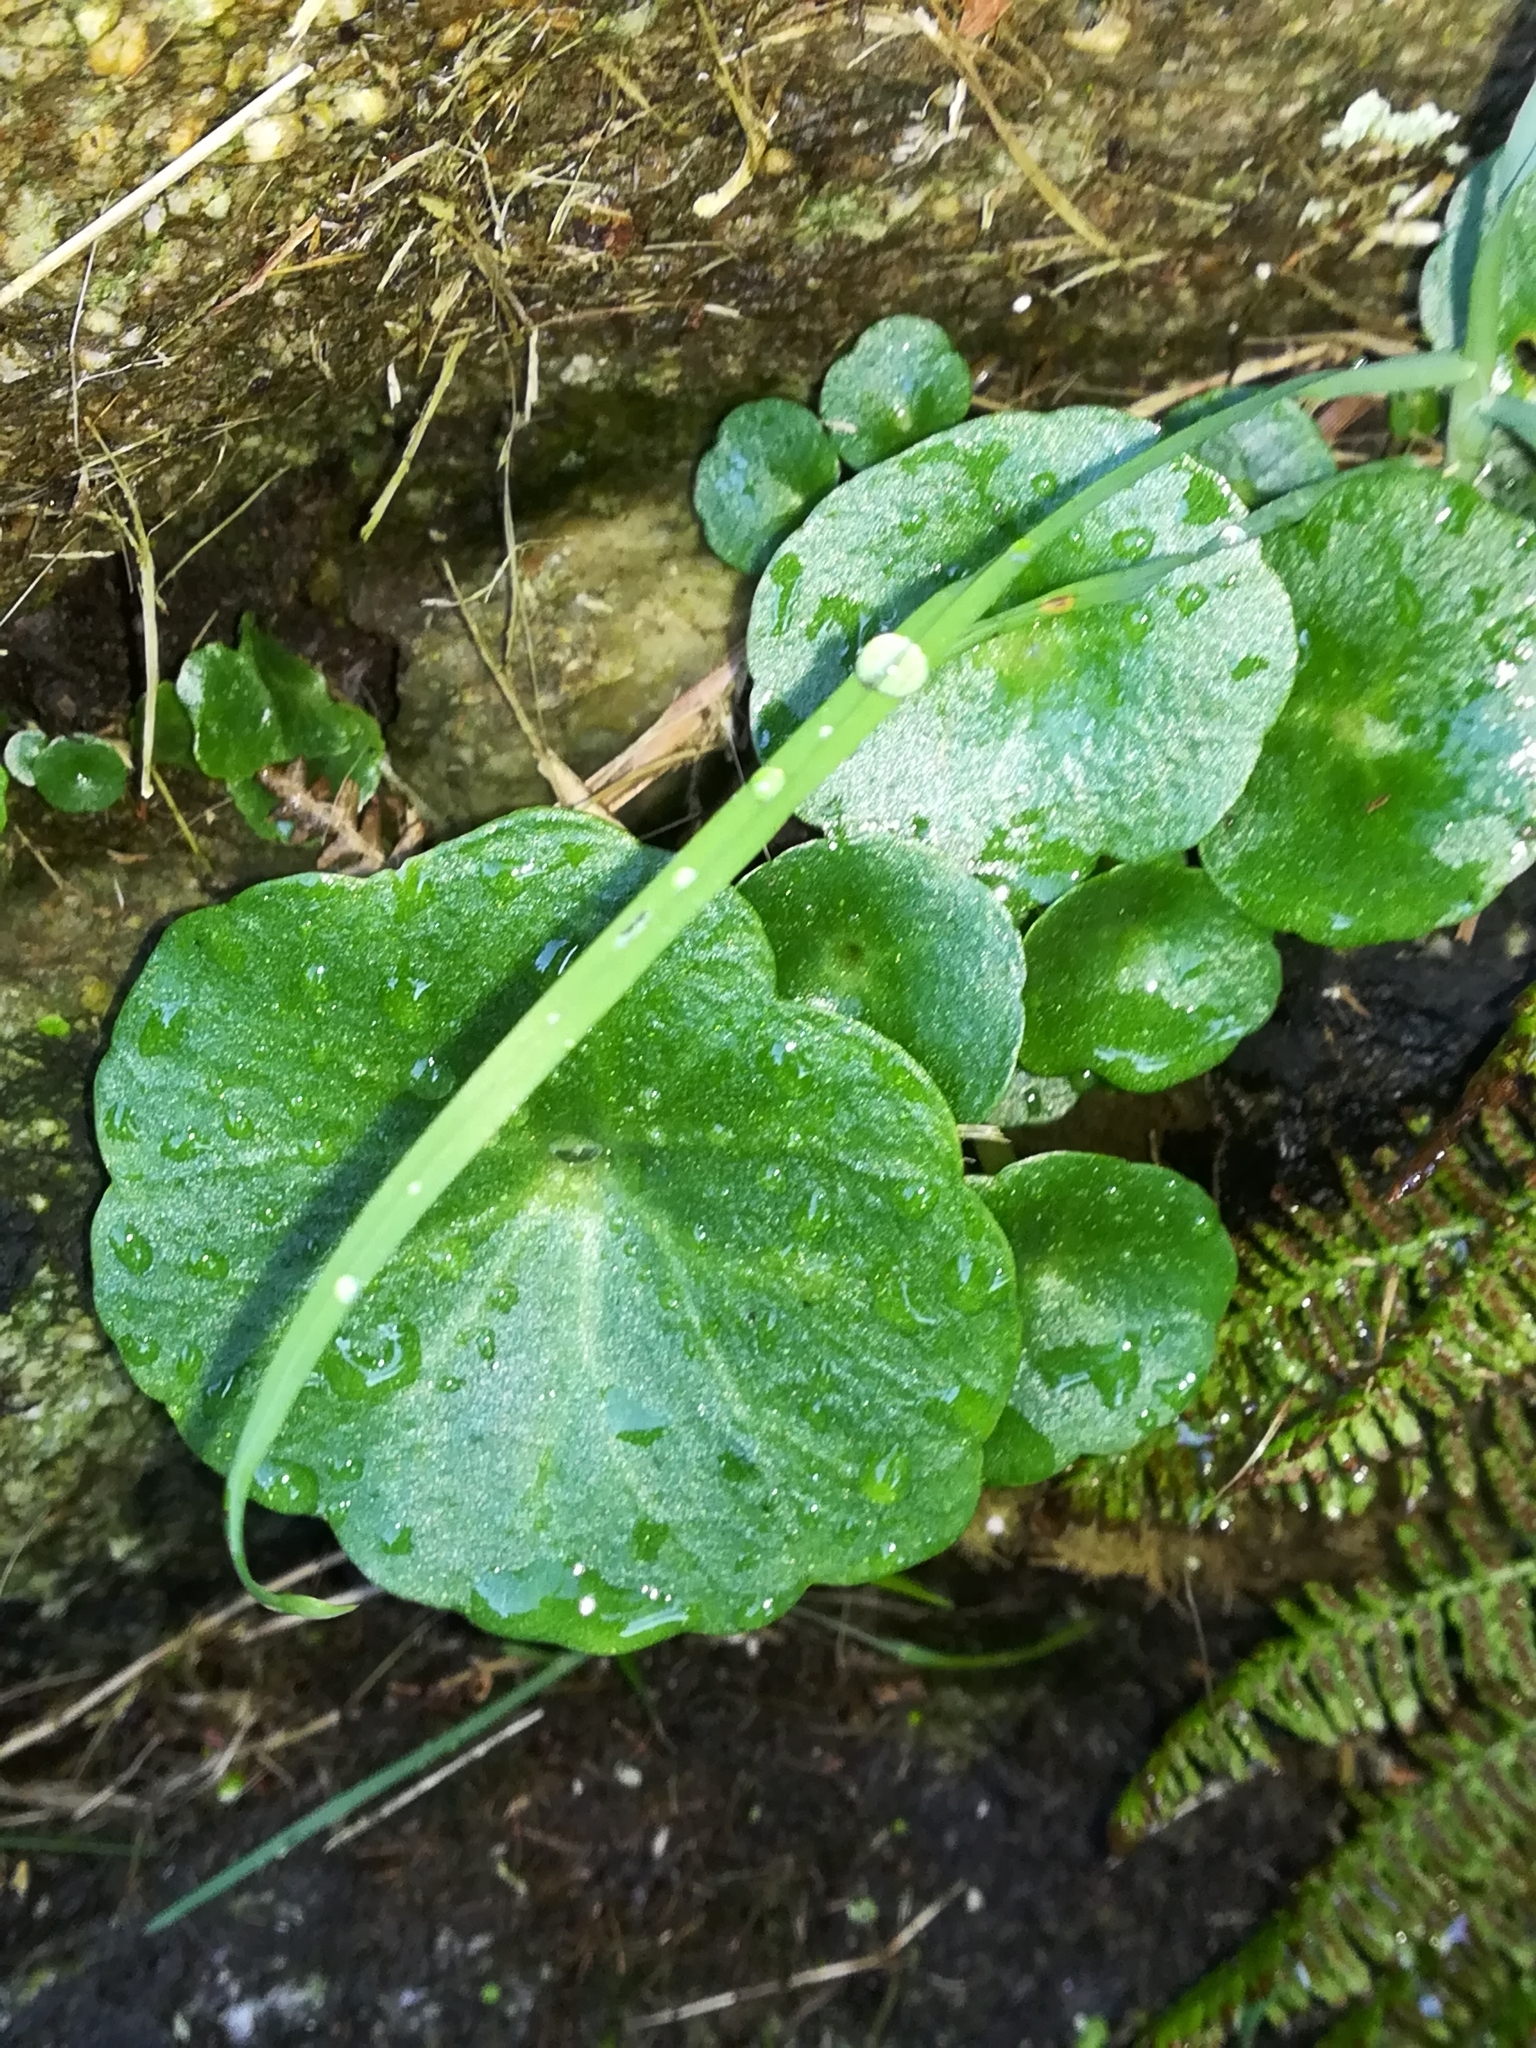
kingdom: Plantae
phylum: Tracheophyta
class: Magnoliopsida
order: Saxifragales
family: Crassulaceae
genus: Umbilicus
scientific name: Umbilicus rupestris
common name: Navelwort
